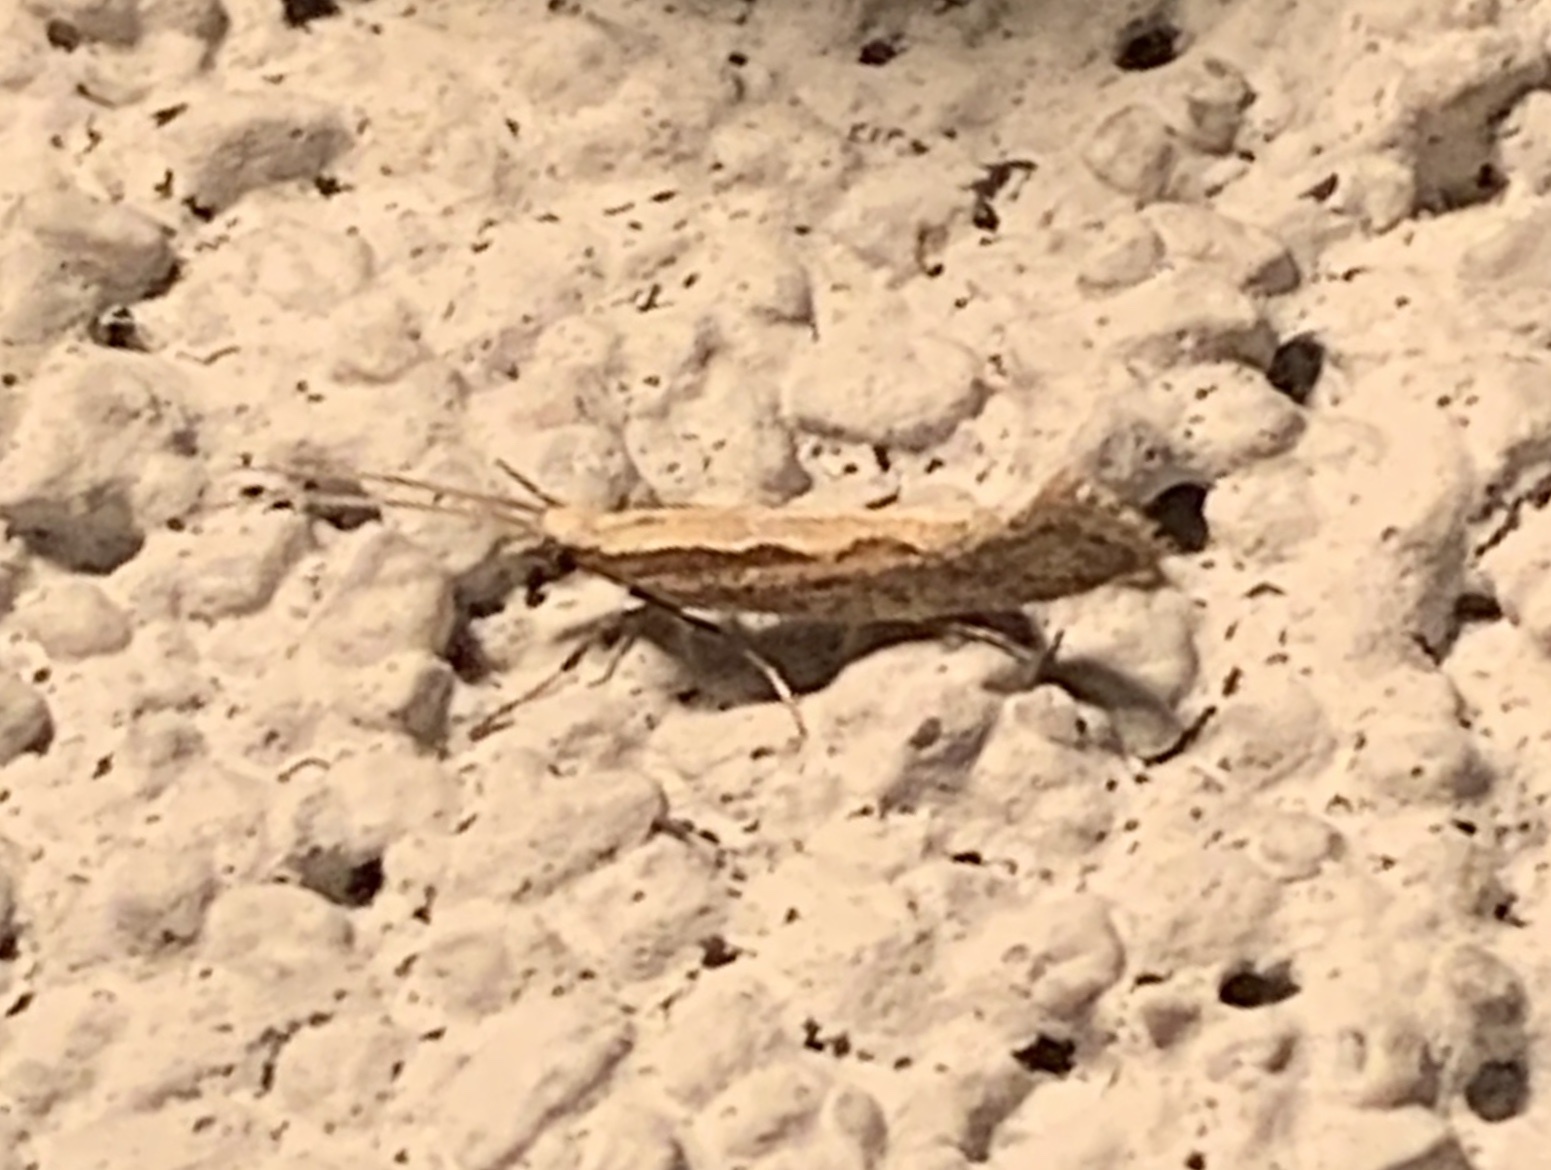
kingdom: Animalia
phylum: Arthropoda
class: Insecta
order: Lepidoptera
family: Plutellidae
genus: Plutella
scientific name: Plutella xylostella
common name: Diamond-back moth
